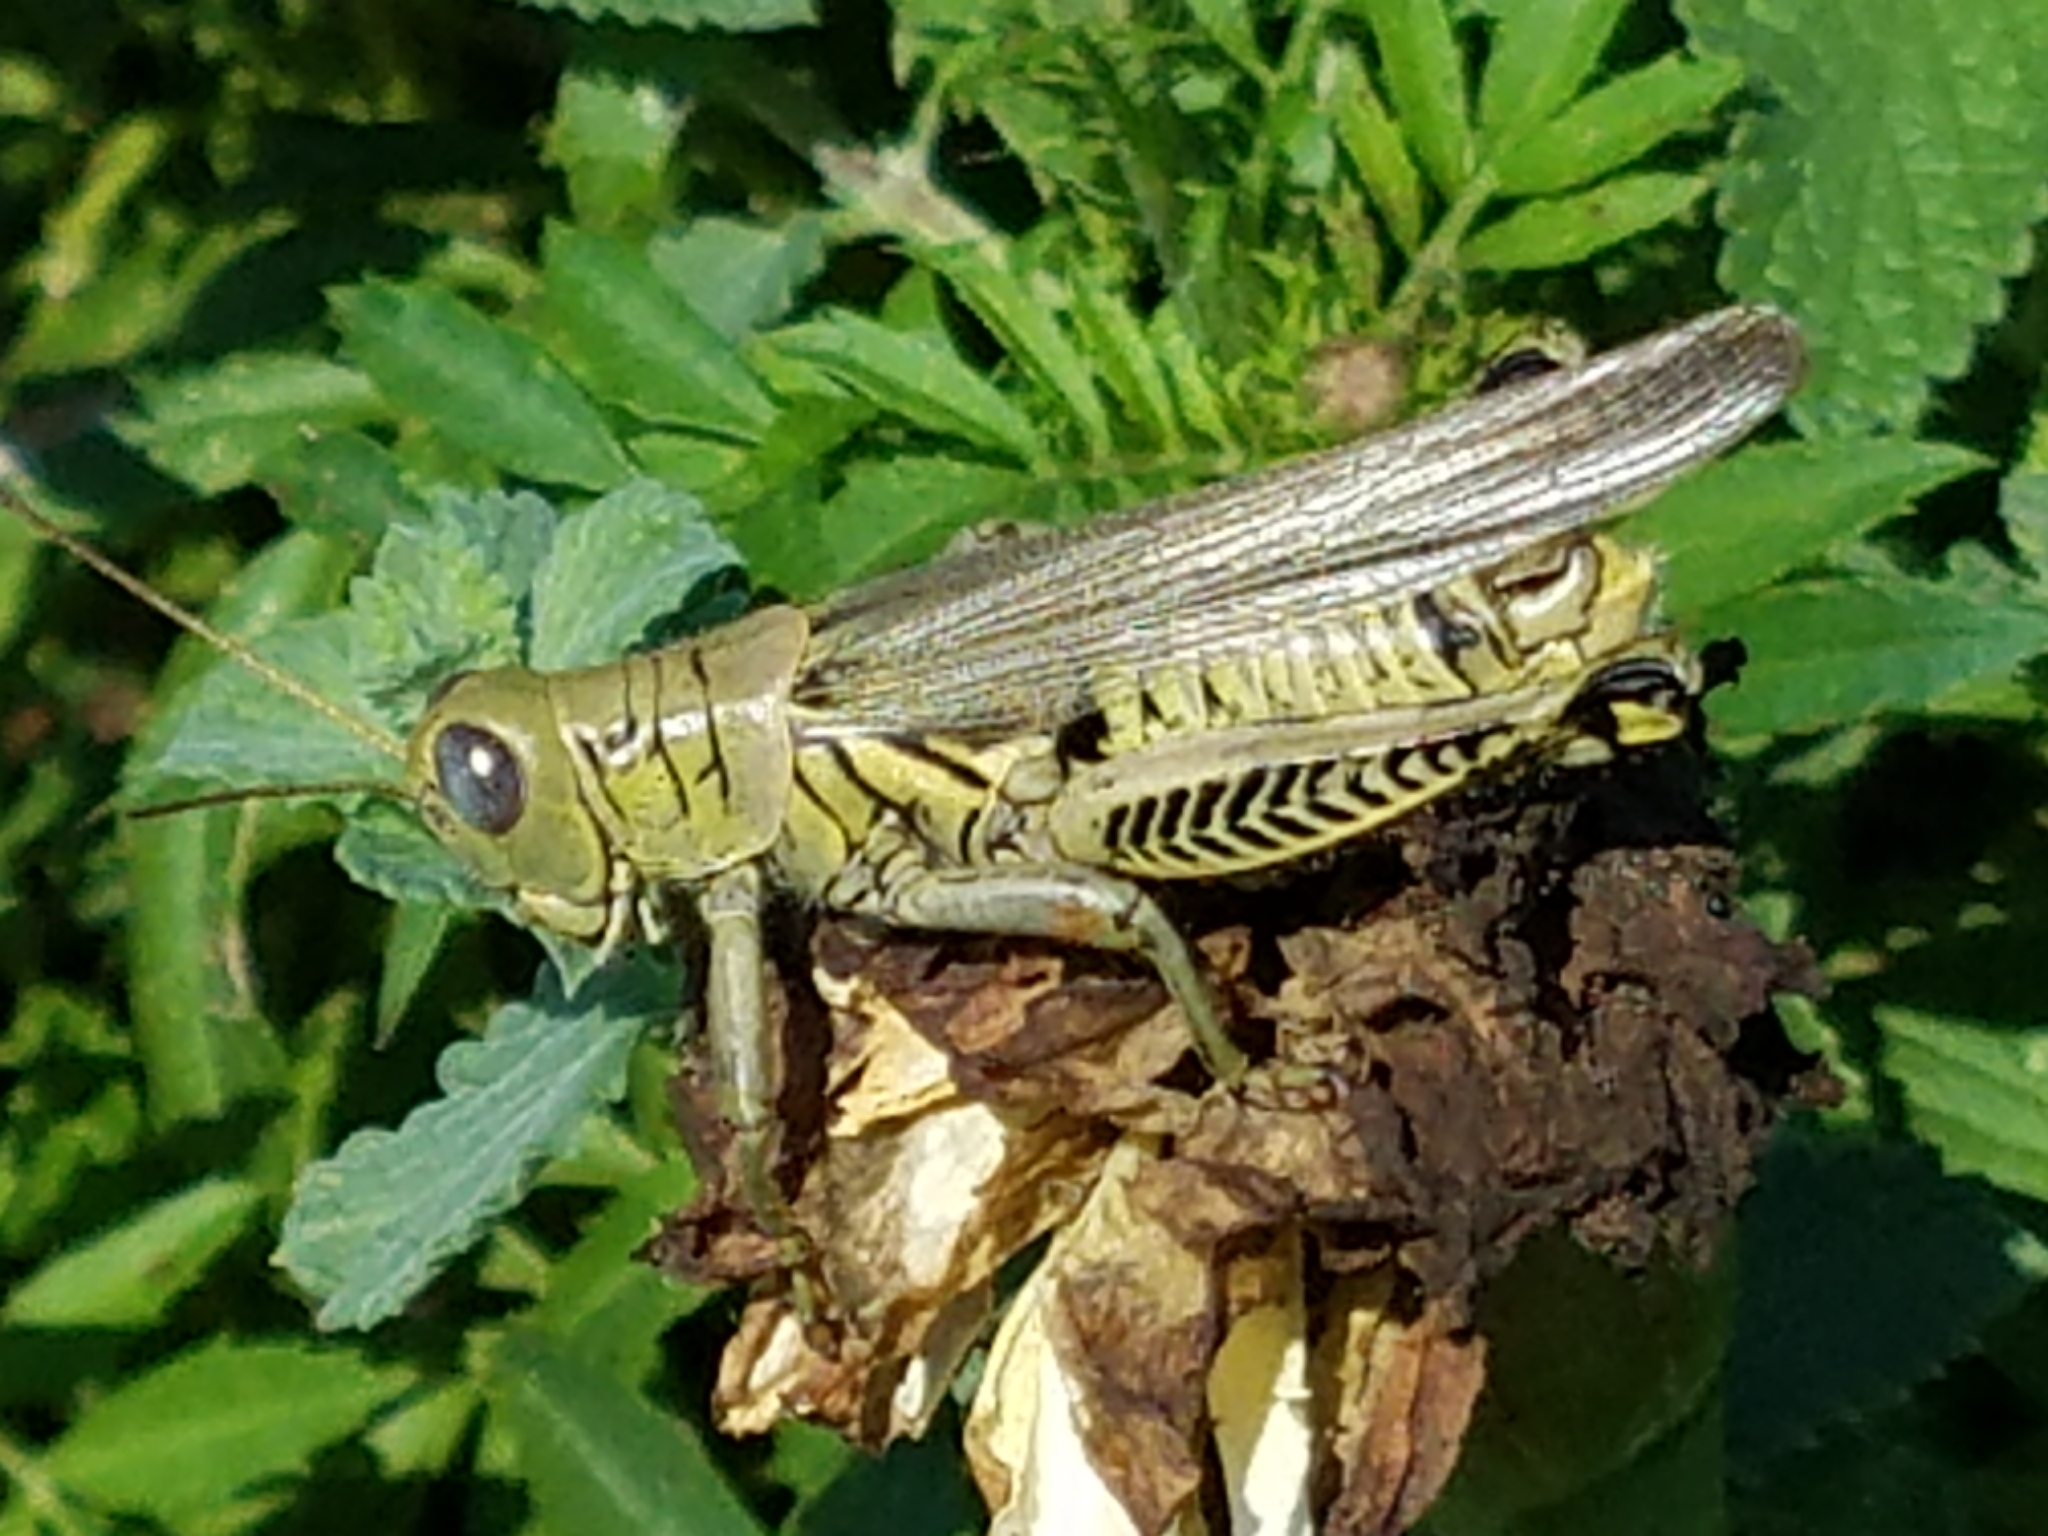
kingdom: Animalia
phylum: Arthropoda
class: Insecta
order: Orthoptera
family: Acrididae
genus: Melanoplus
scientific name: Melanoplus differentialis
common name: Differential grasshopper
